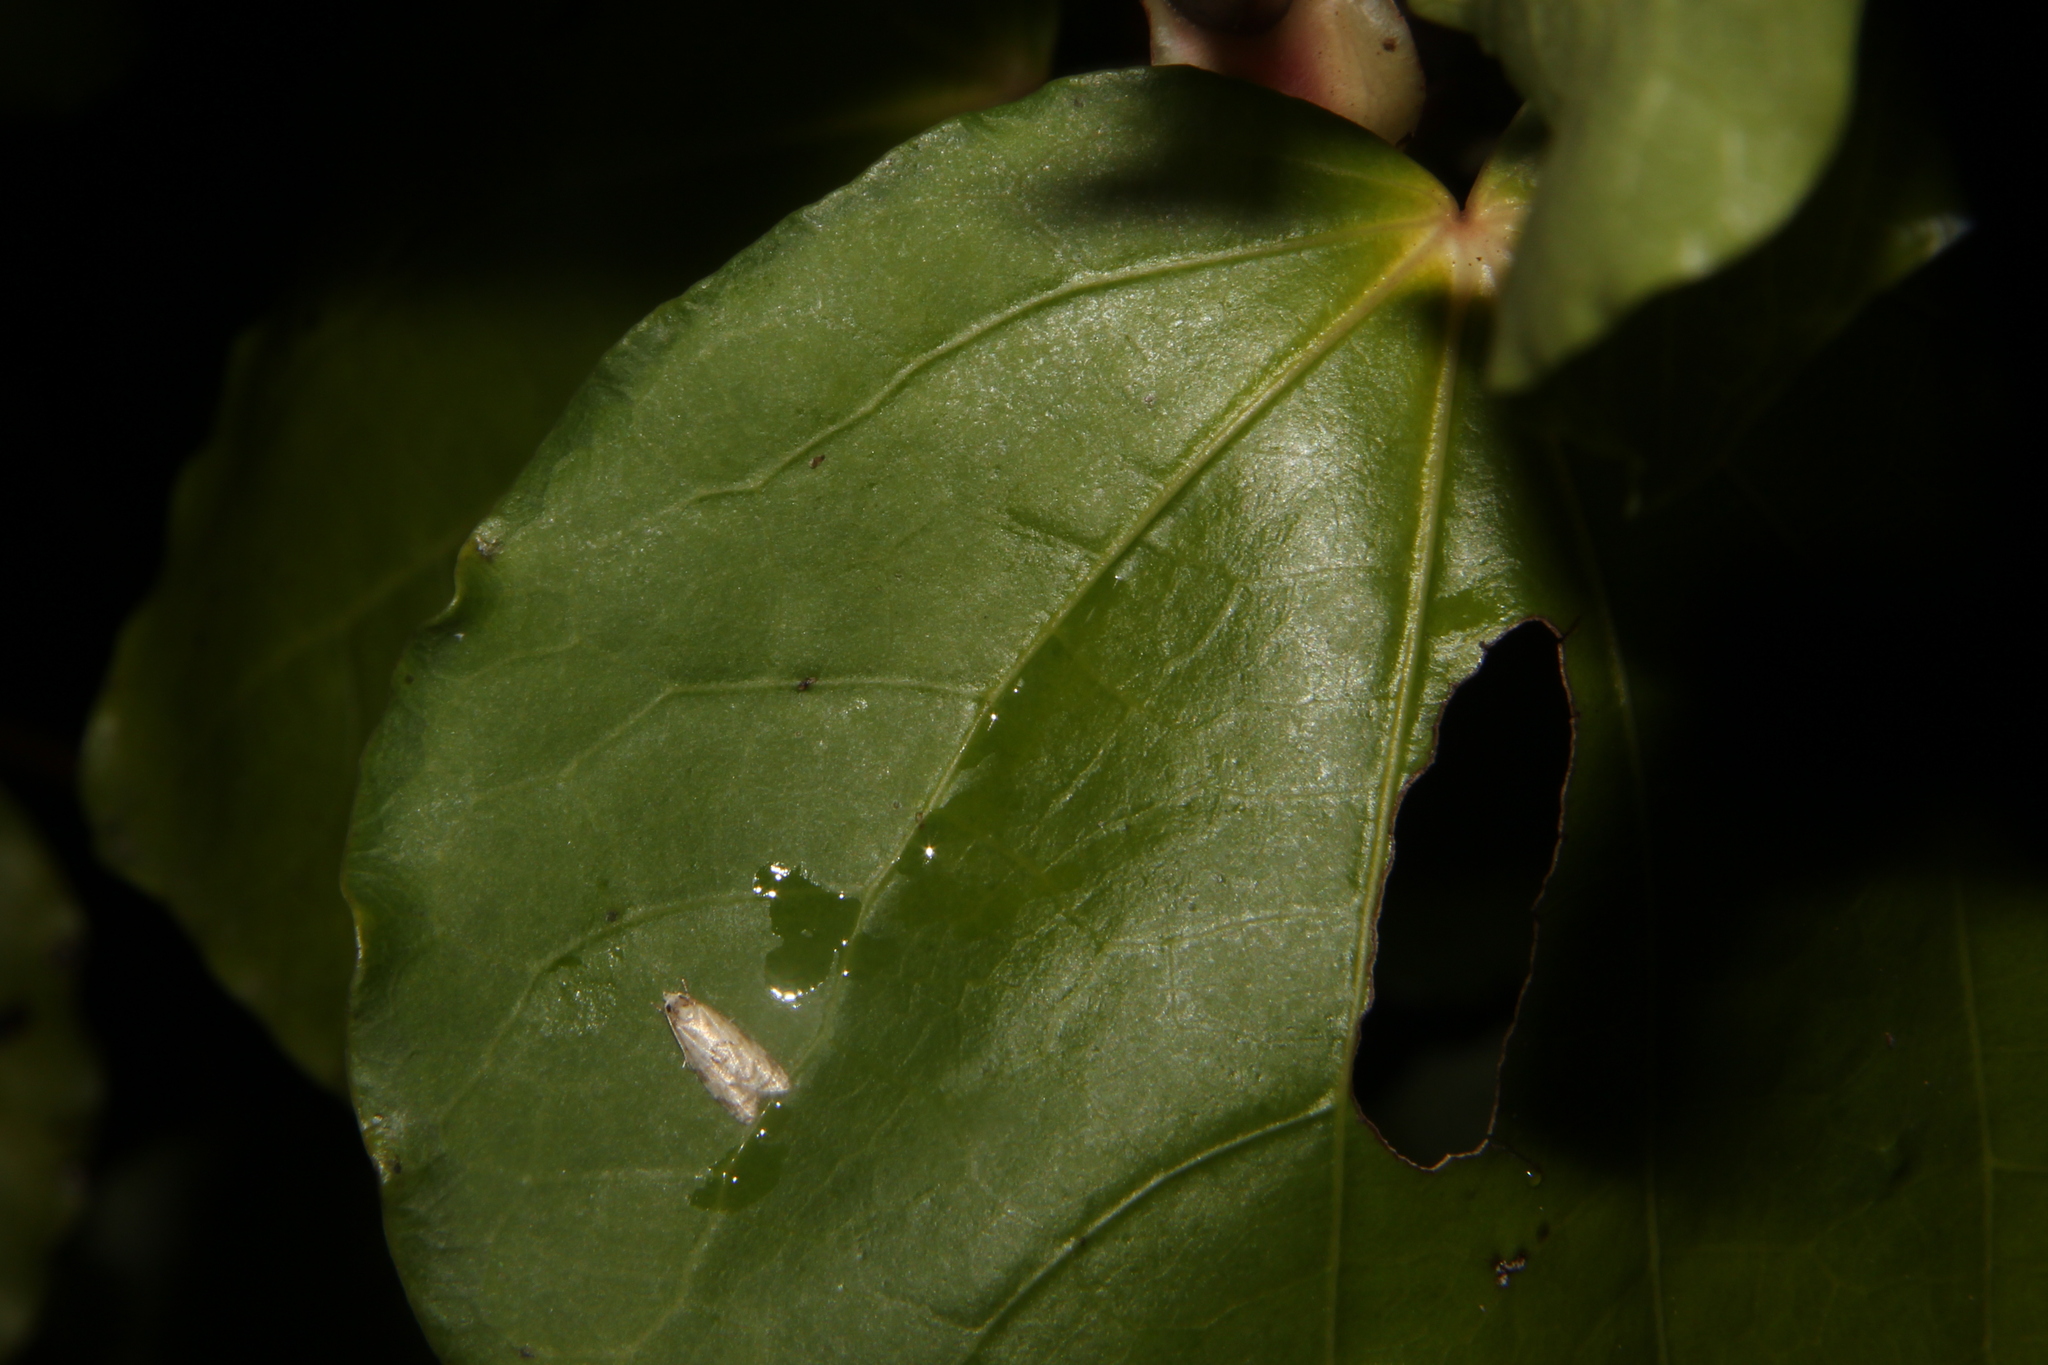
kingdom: Animalia
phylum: Arthropoda
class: Insecta
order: Lepidoptera
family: Tortricidae
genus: Dipterina
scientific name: Dipterina imbriferana
